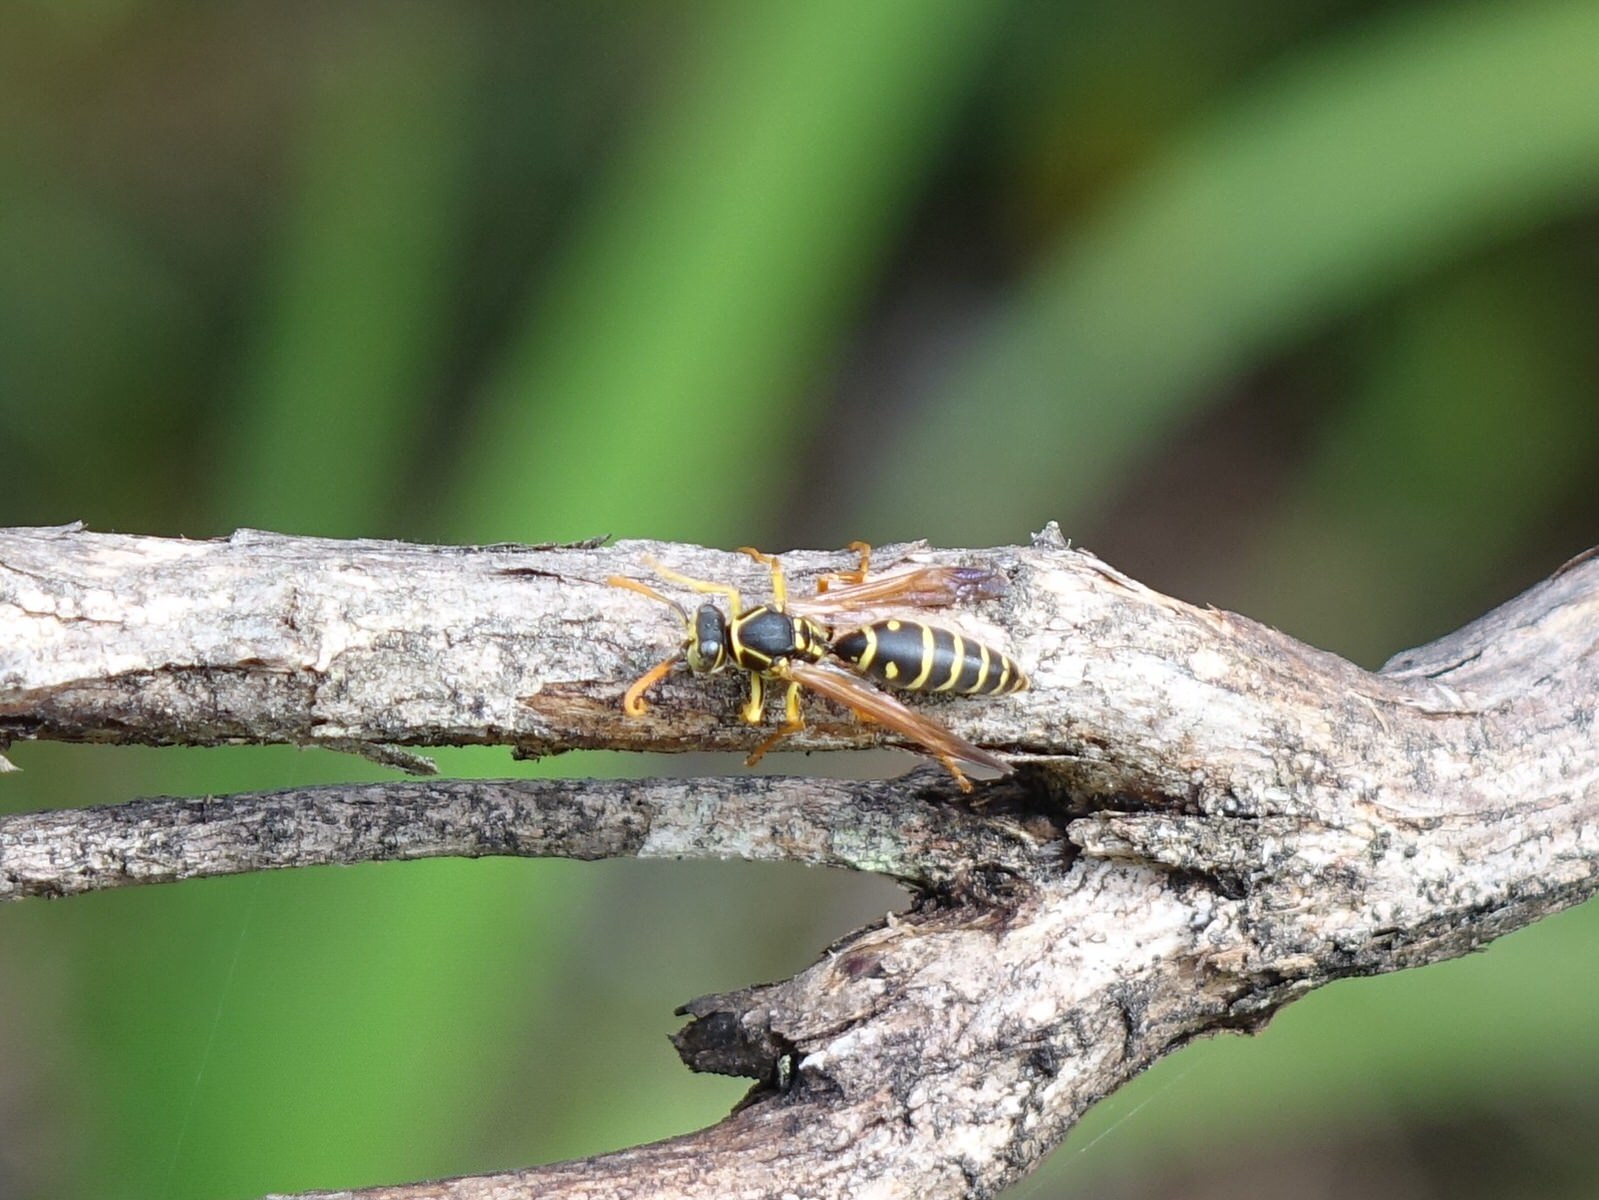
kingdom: Animalia
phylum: Arthropoda
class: Insecta
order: Hymenoptera
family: Eumenidae
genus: Polistes
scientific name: Polistes chinensis
